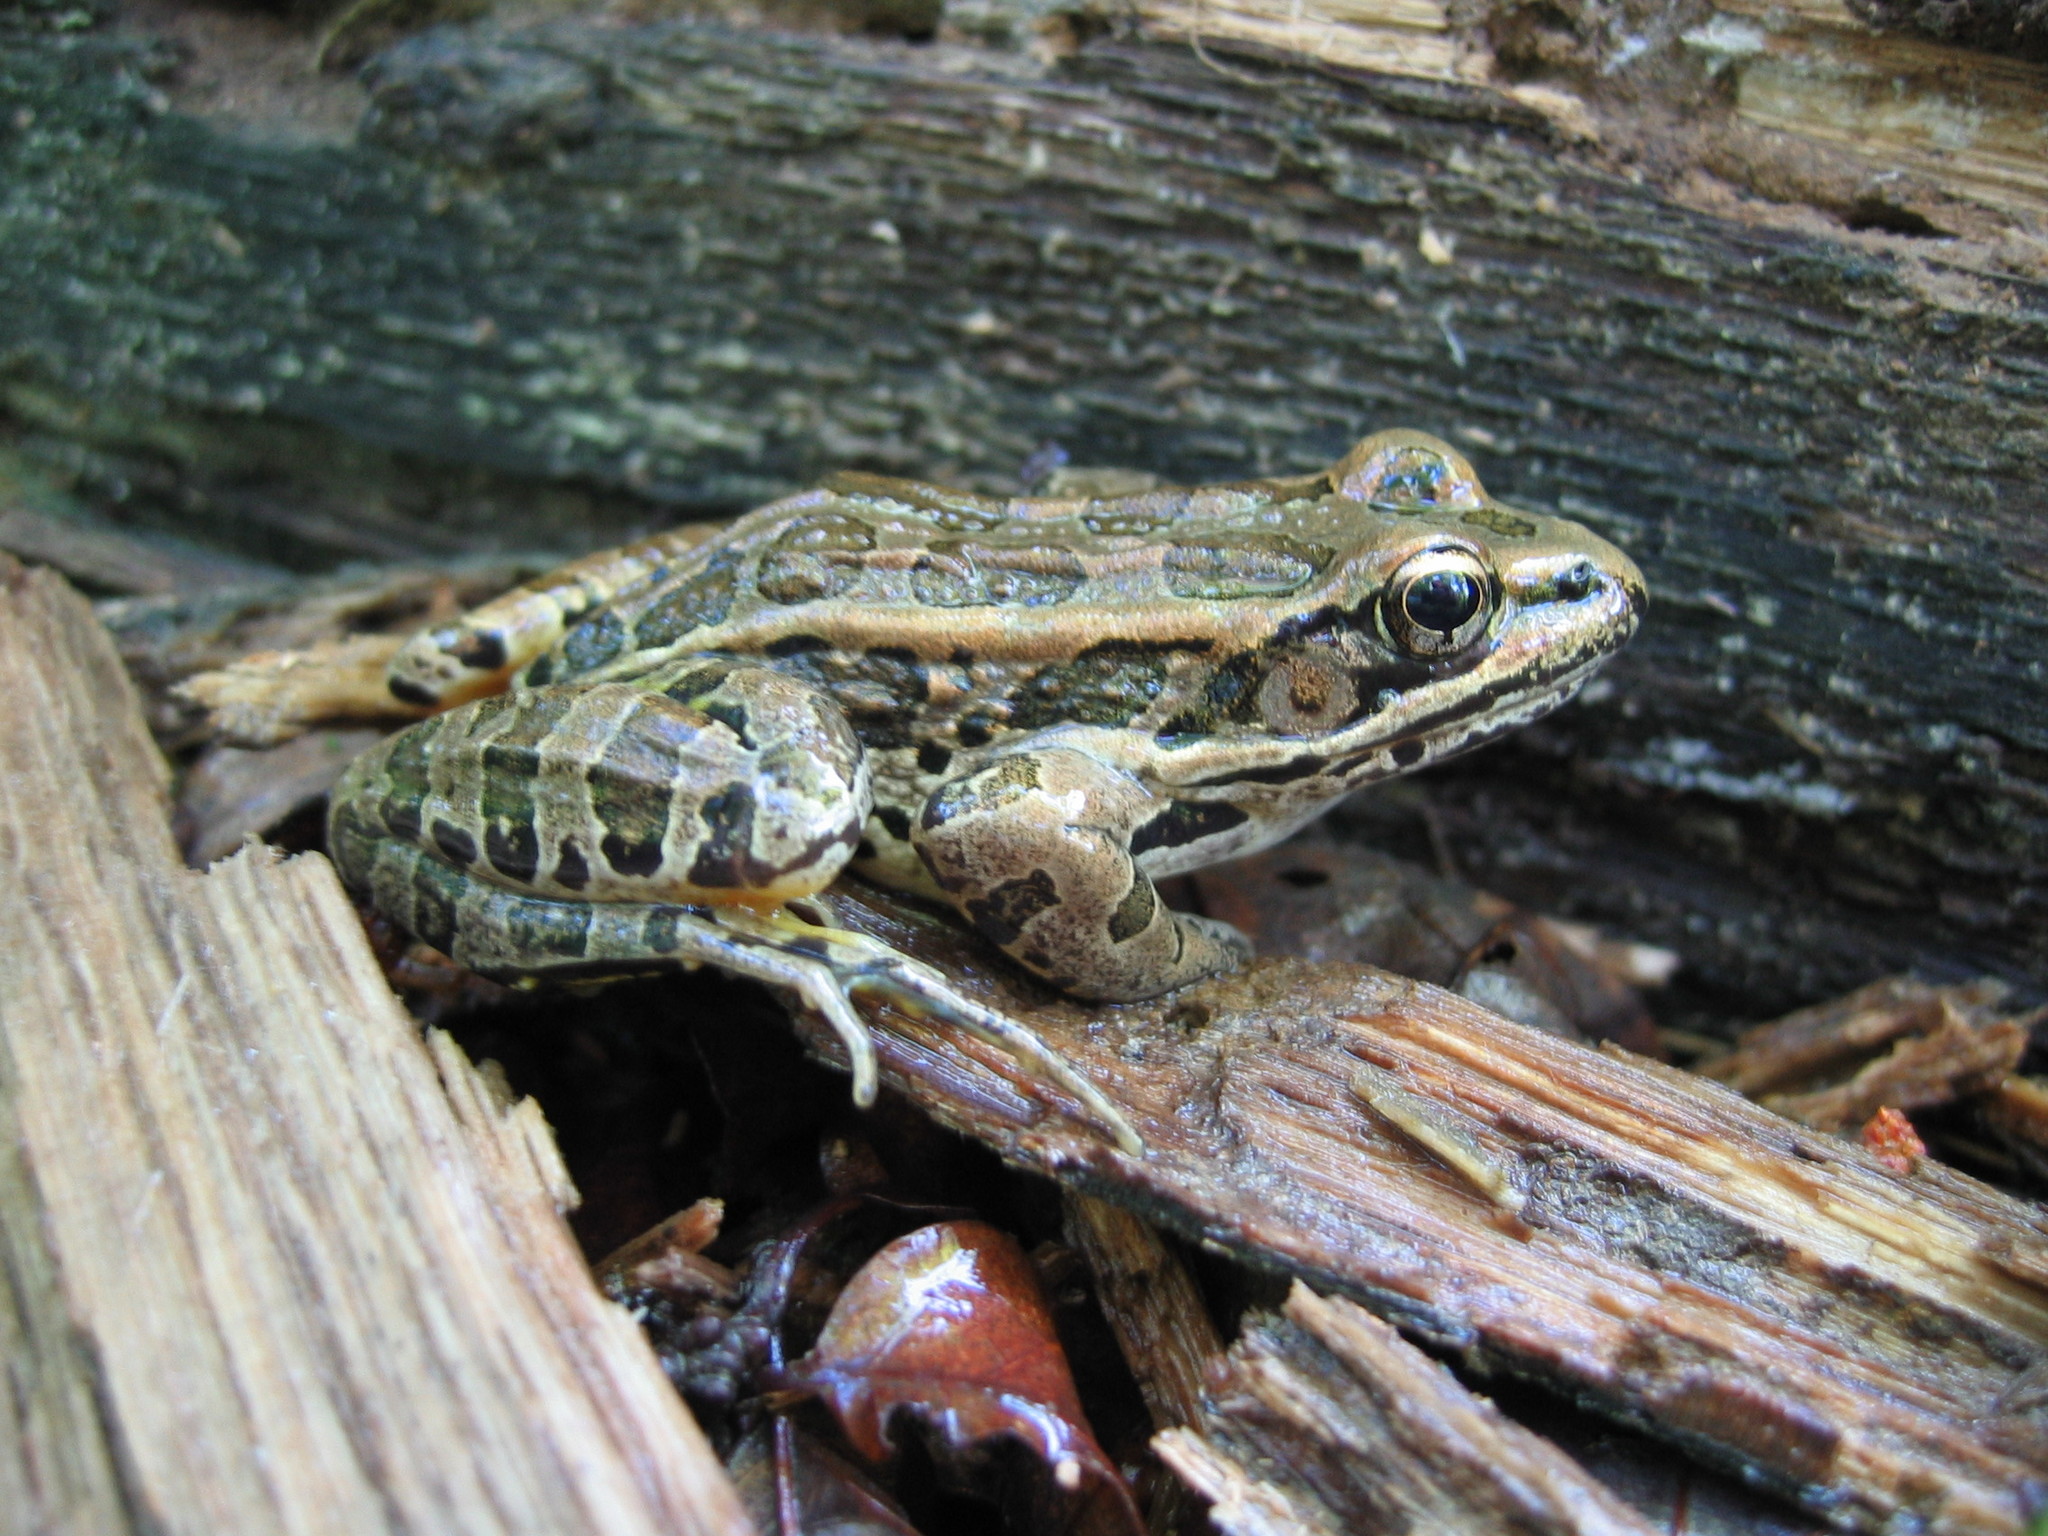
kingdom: Animalia
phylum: Chordata
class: Amphibia
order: Anura
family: Ranidae
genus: Lithobates
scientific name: Lithobates palustris
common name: Pickerel frog
